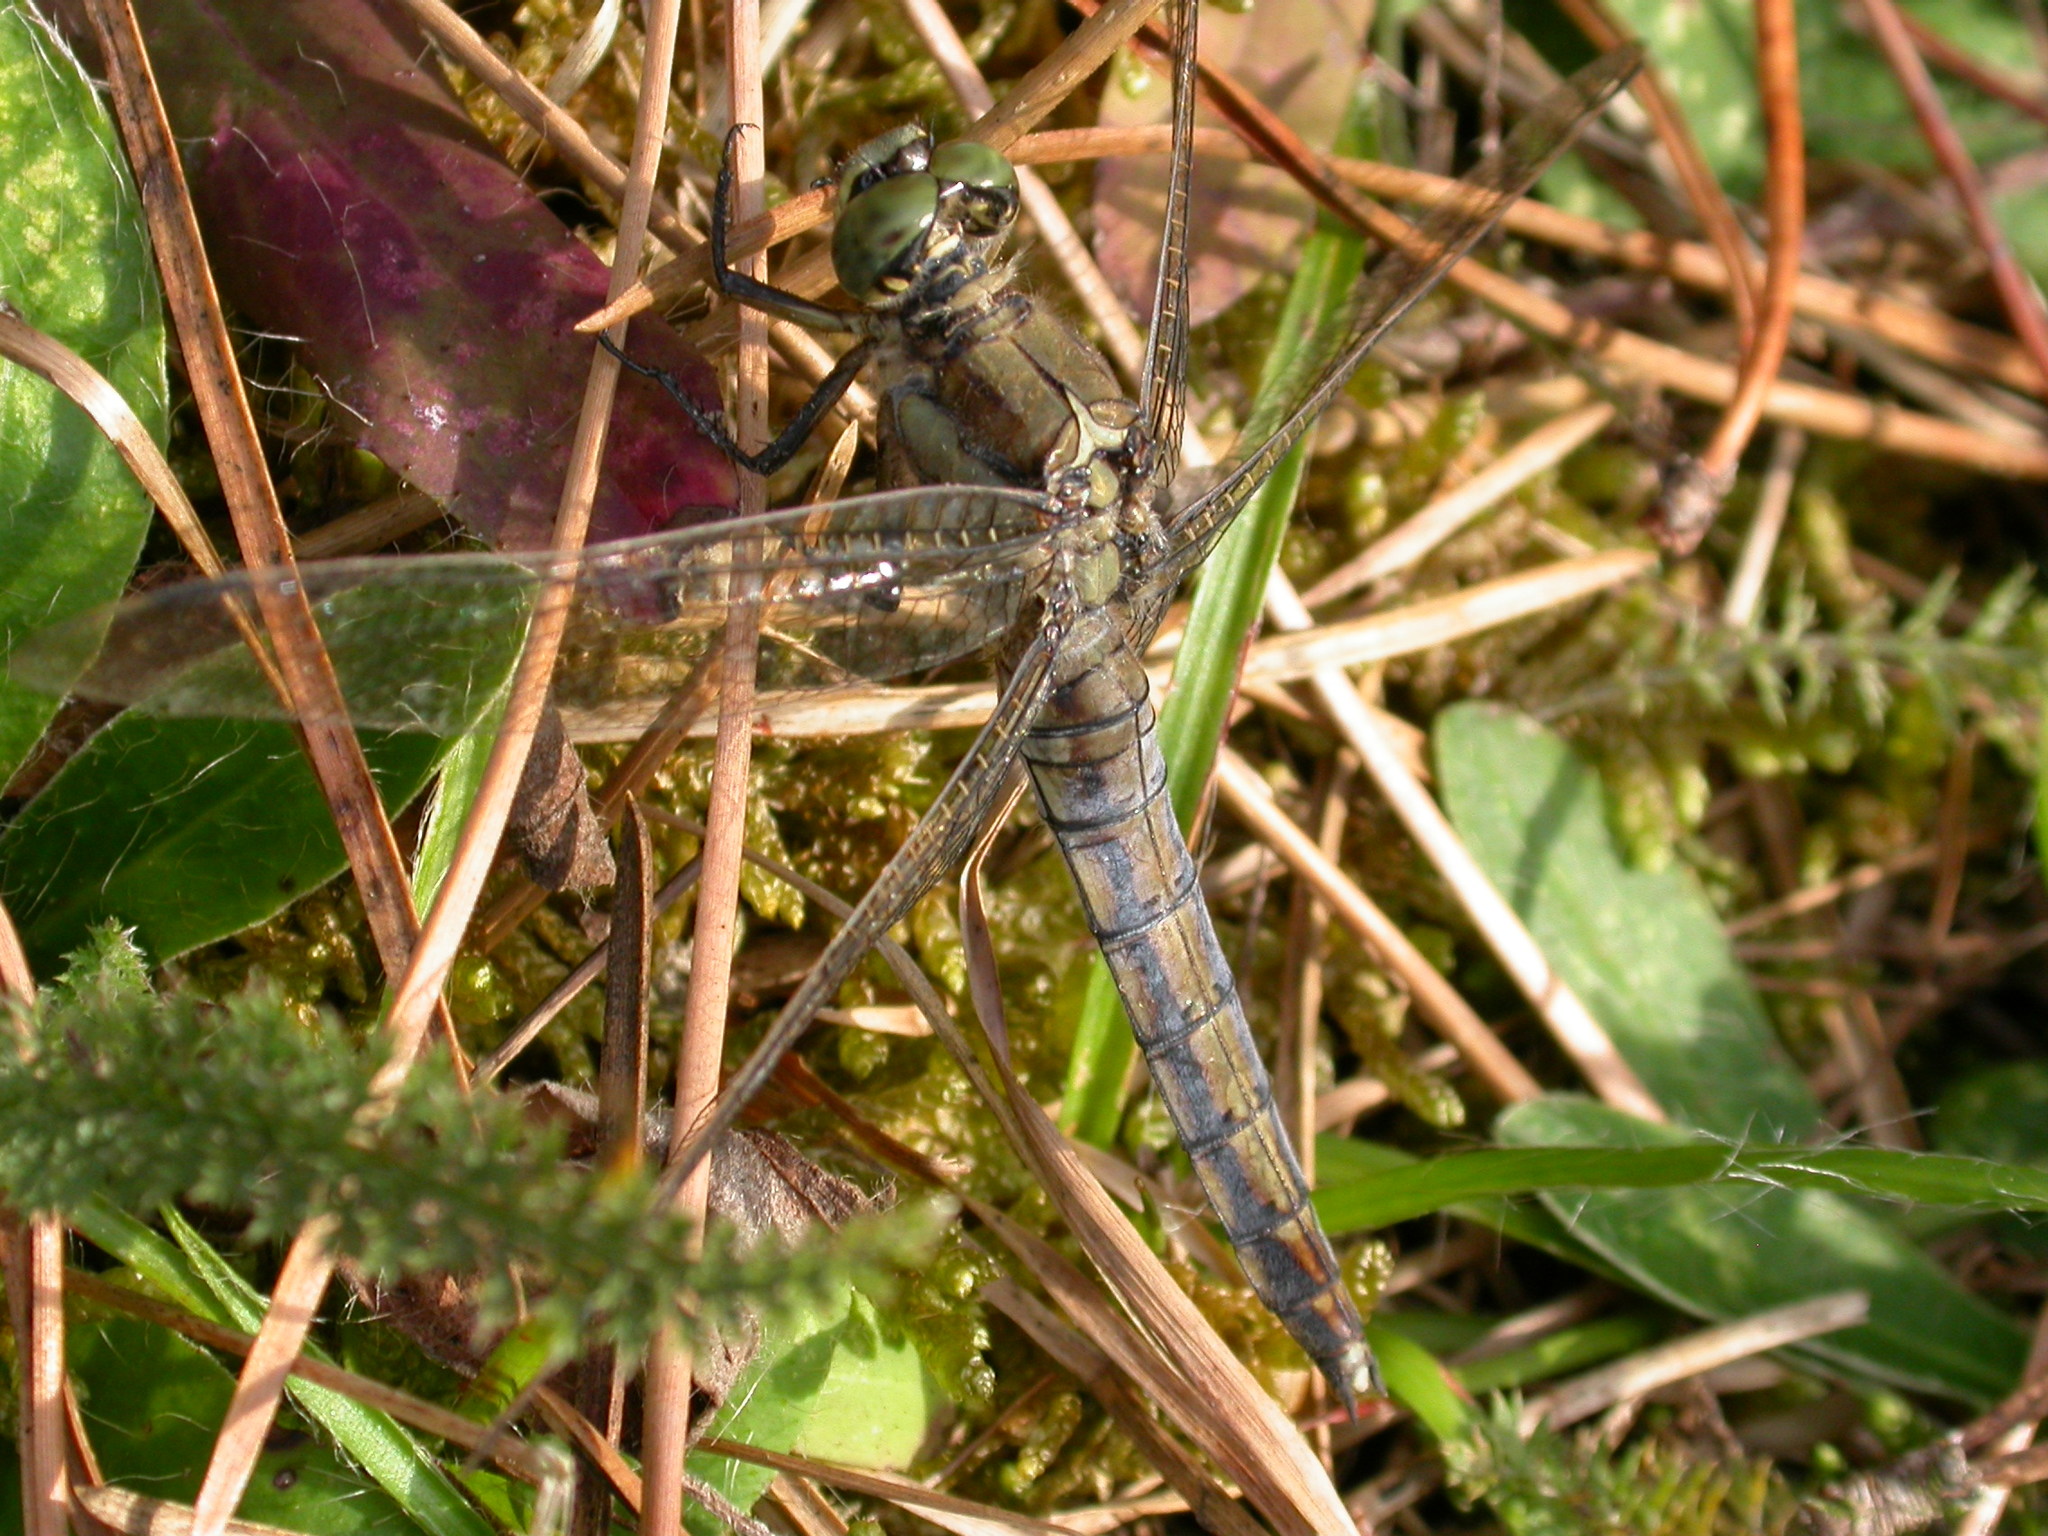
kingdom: Animalia
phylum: Arthropoda
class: Insecta
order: Odonata
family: Libellulidae
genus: Orthetrum
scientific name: Orthetrum cancellatum
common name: Black-tailed skimmer
